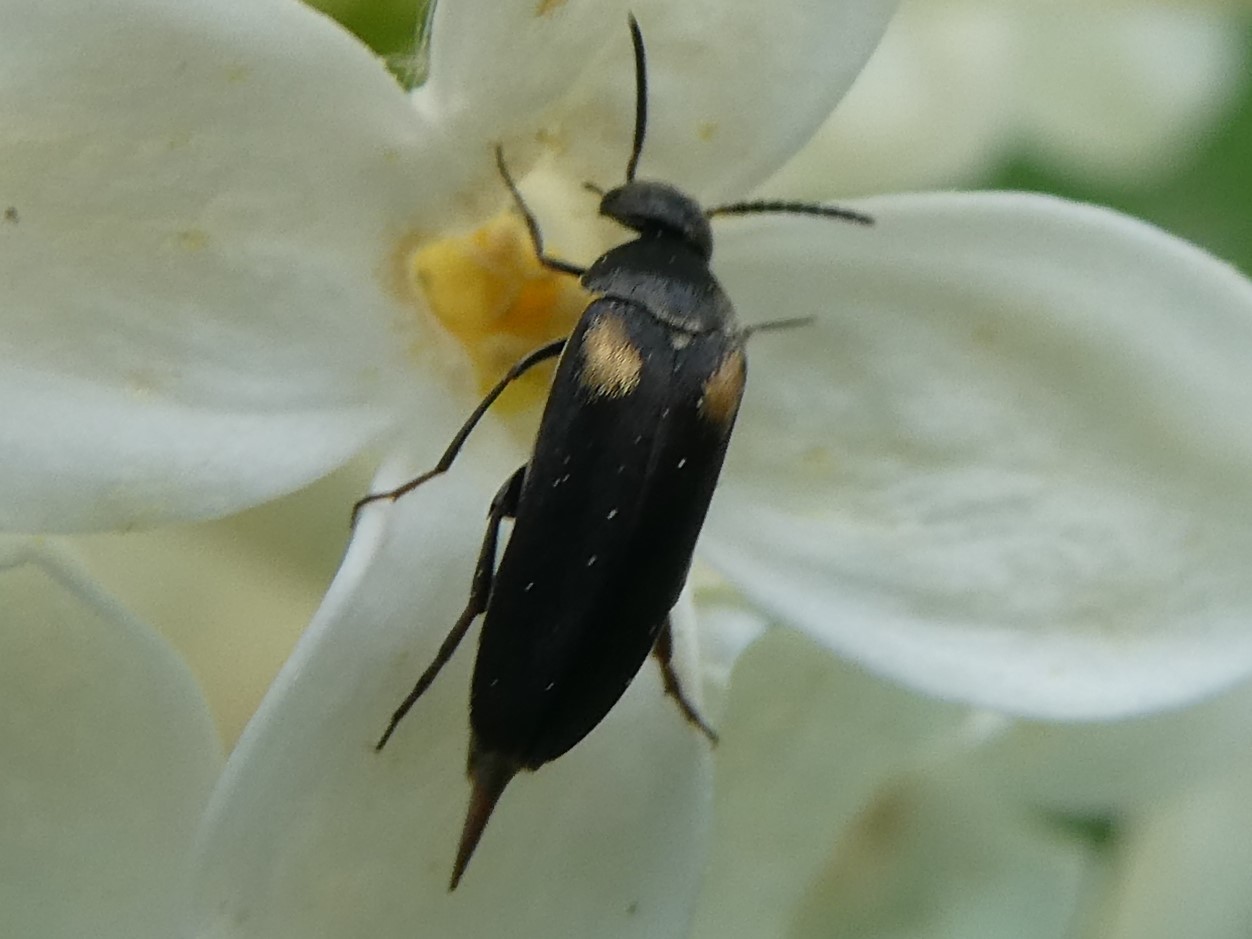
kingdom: Animalia
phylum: Arthropoda
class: Insecta
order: Coleoptera
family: Mordellidae
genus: Mordellochroa
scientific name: Mordellochroa scapularis
